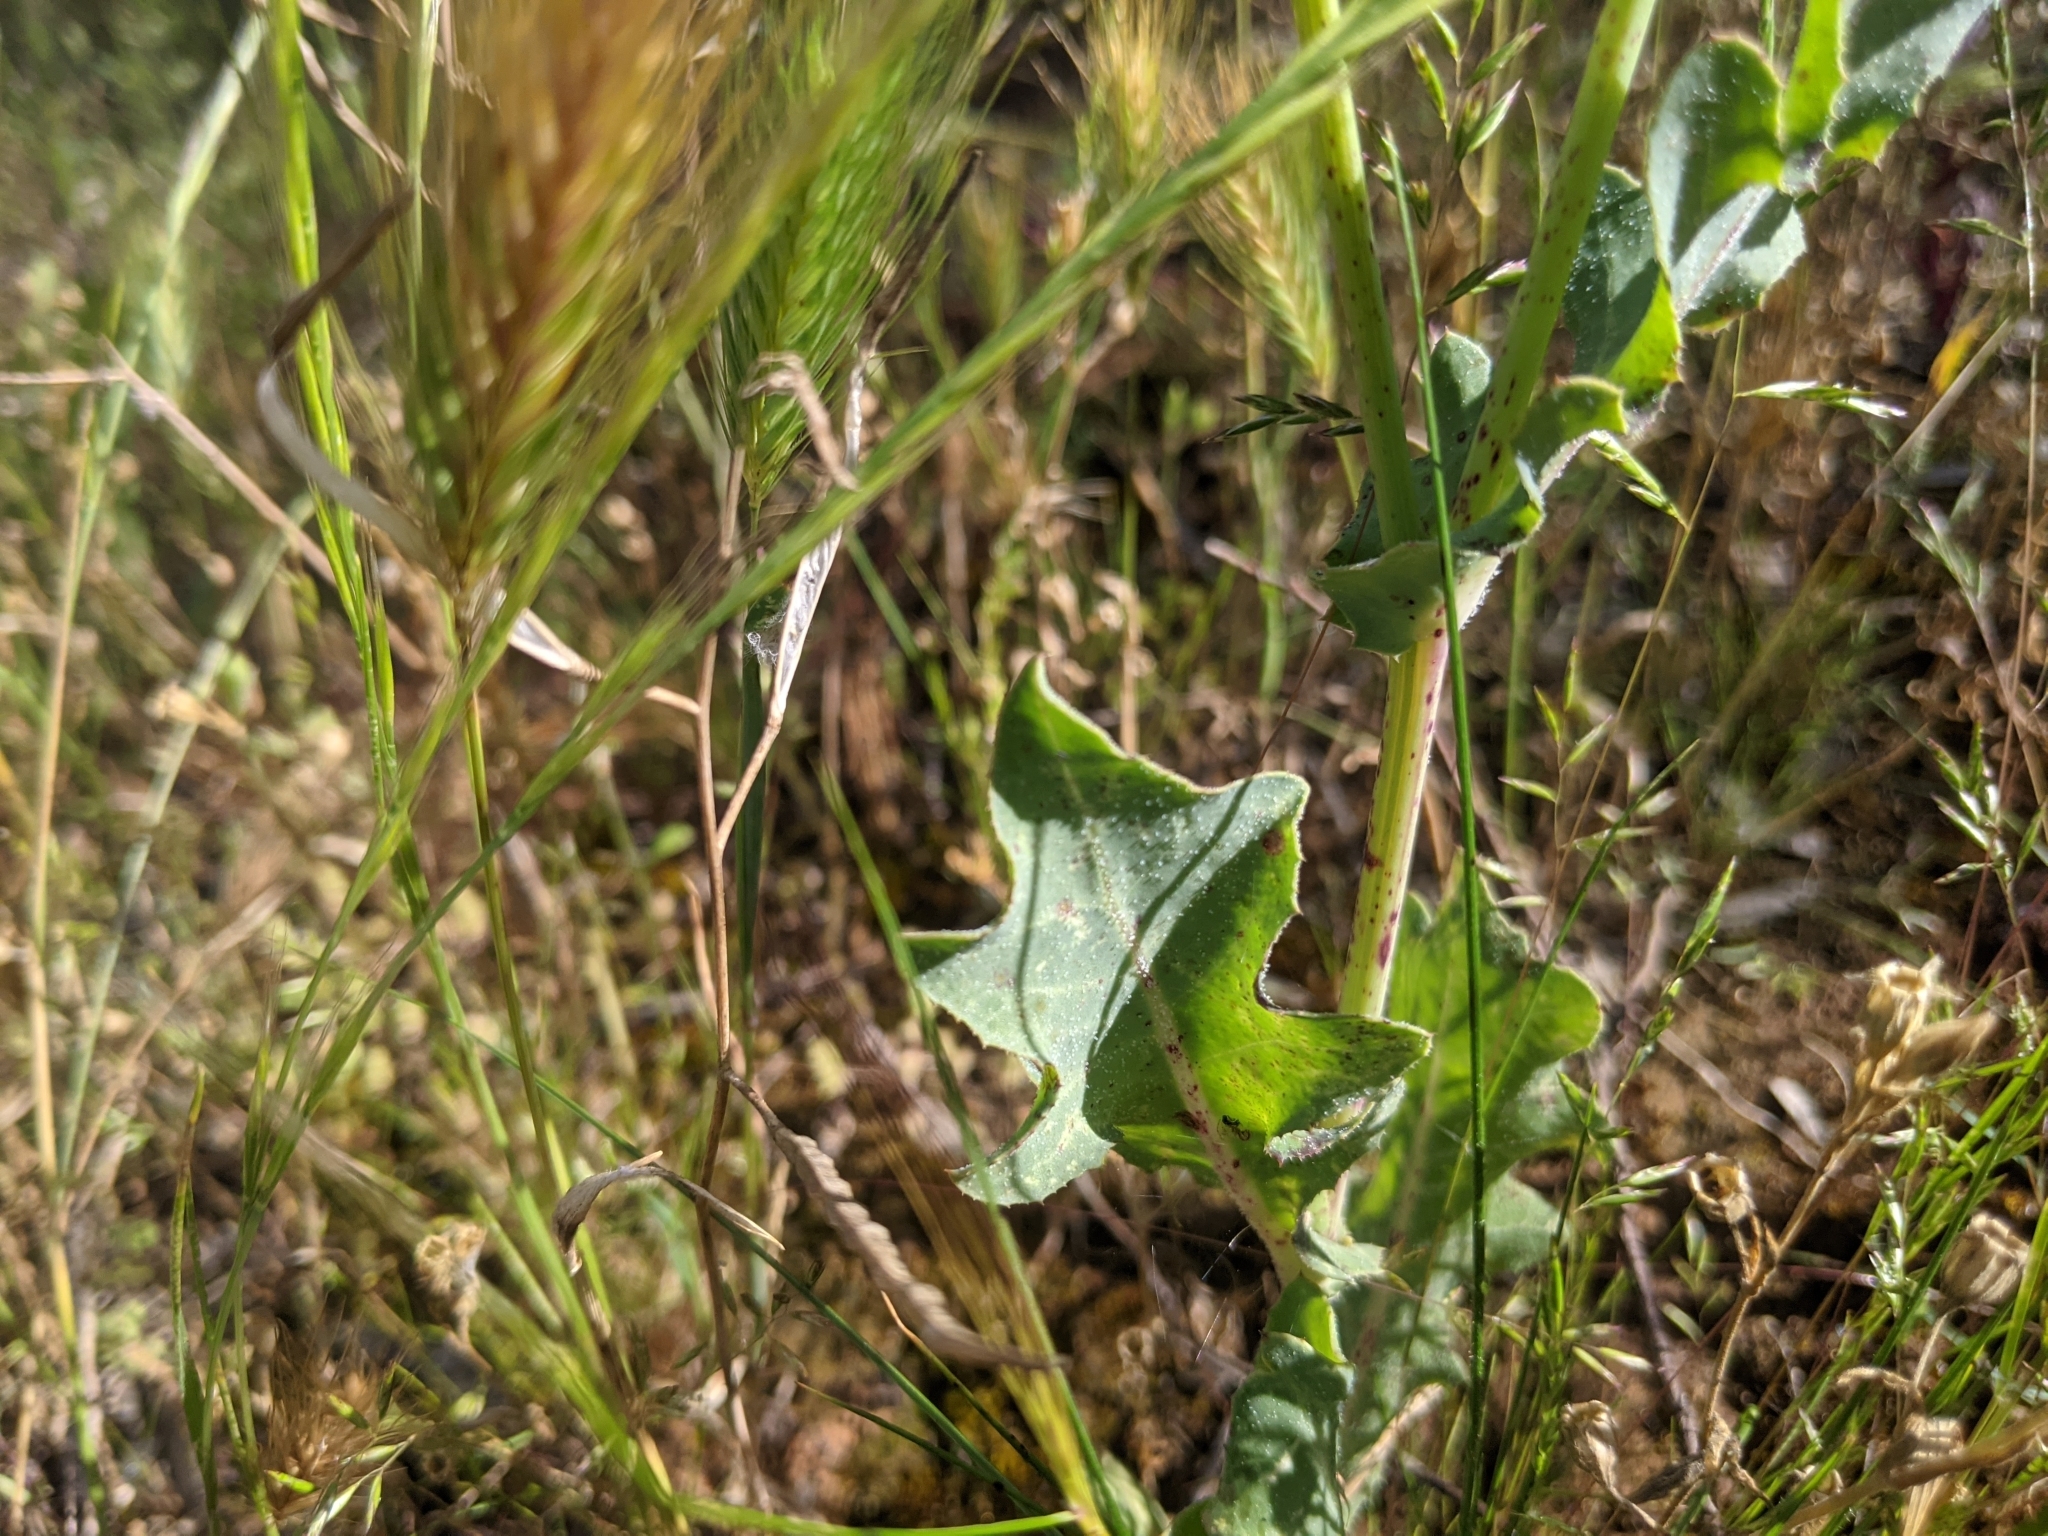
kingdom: Plantae
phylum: Tracheophyta
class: Magnoliopsida
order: Asterales
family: Asteraceae
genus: Reichardia
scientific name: Reichardia tingitana
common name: Reichardia
